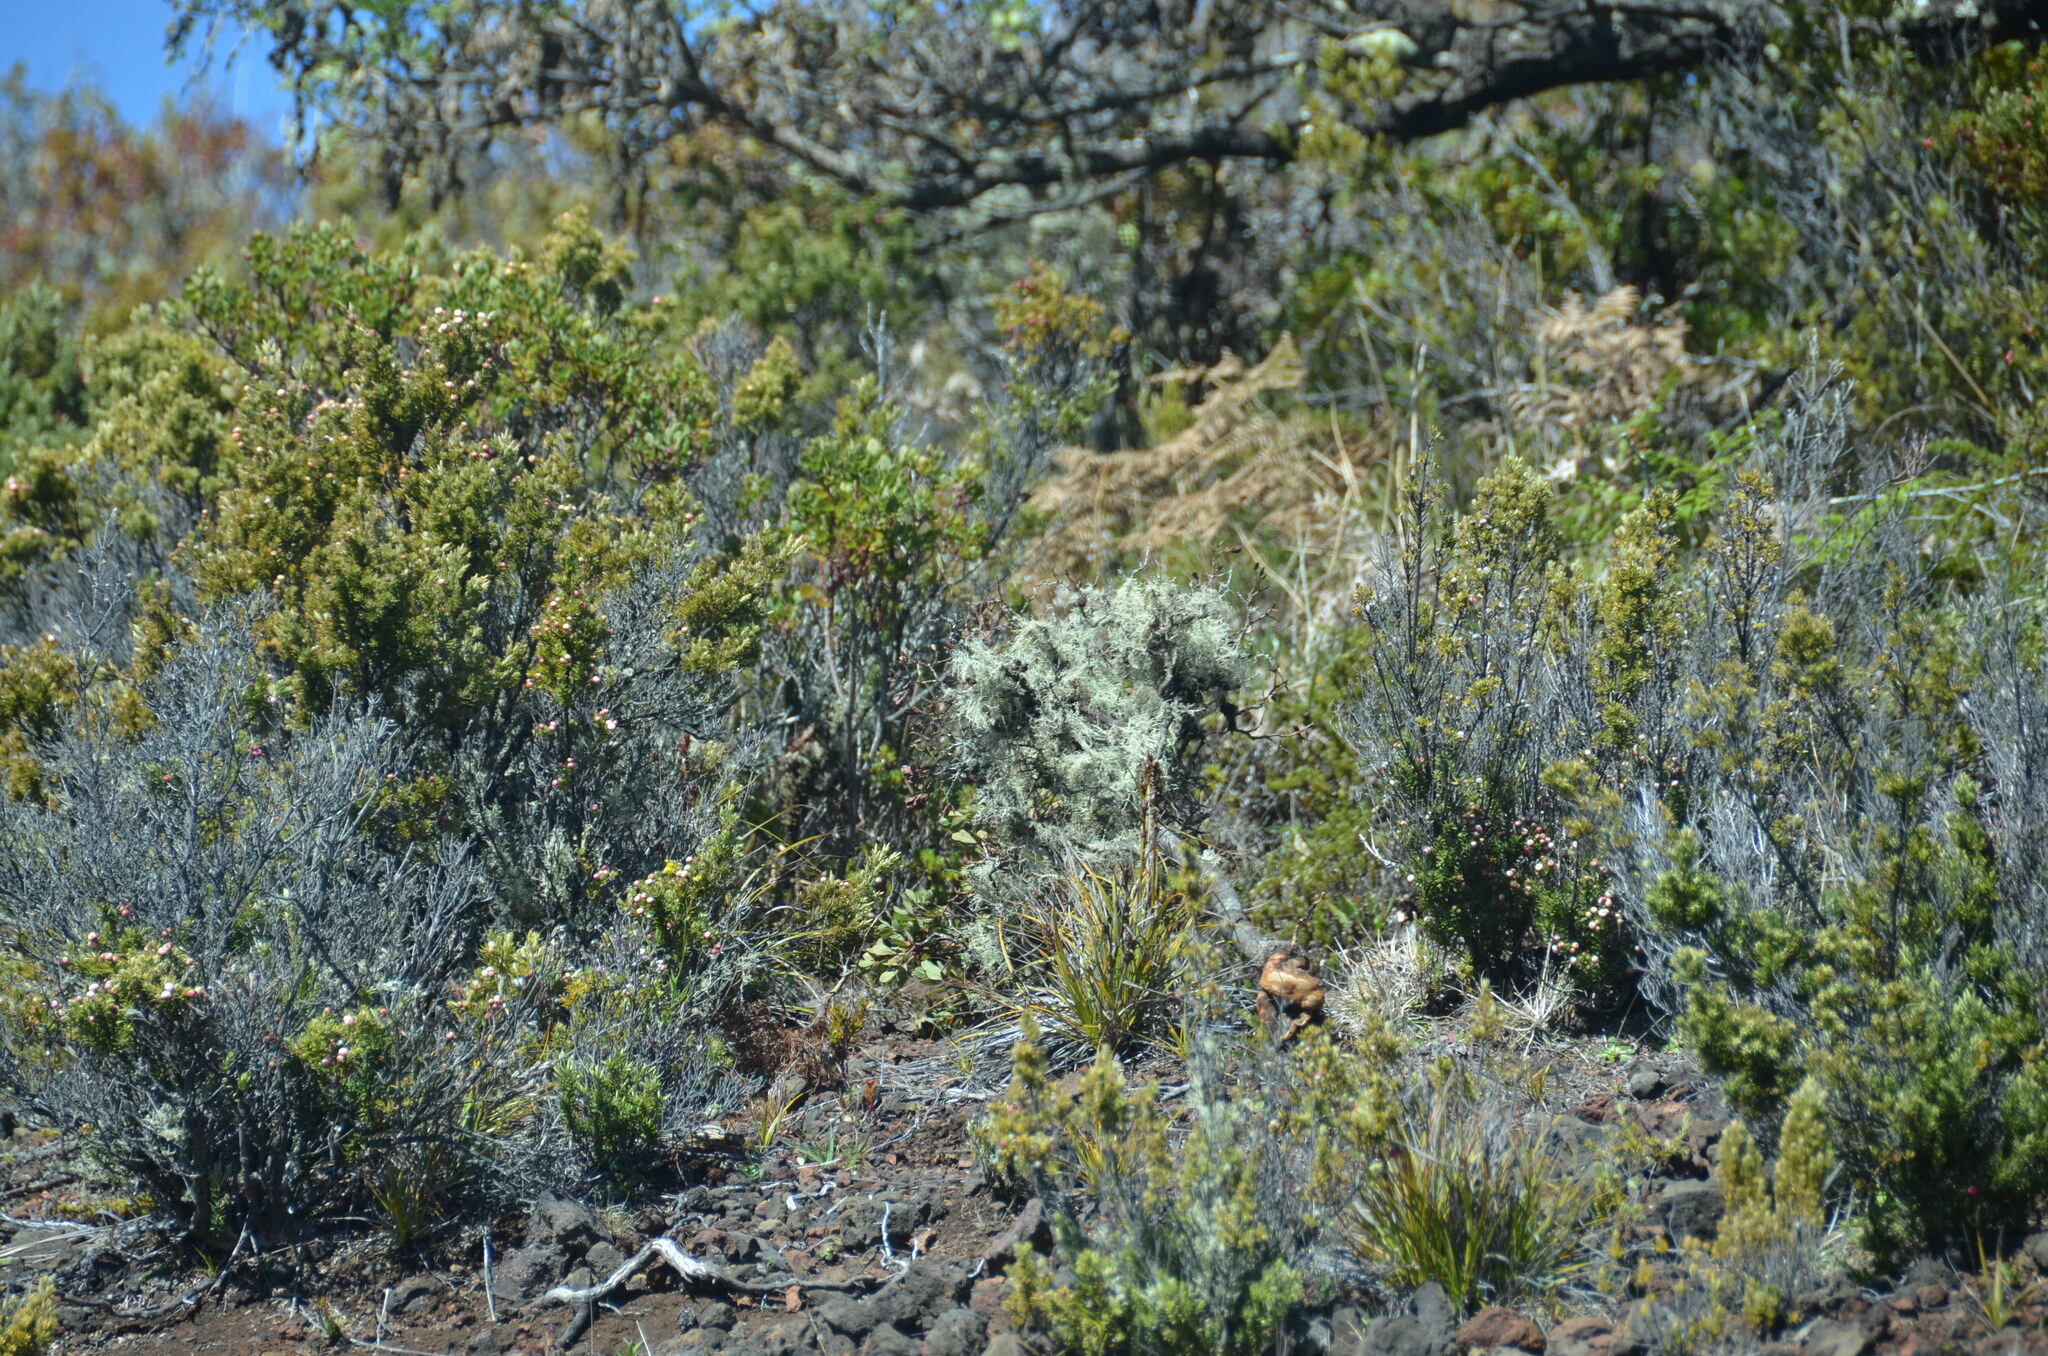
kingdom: Plantae
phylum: Tracheophyta
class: Magnoliopsida
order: Ericales
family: Ericaceae
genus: Leptecophylla
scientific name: Leptecophylla tameiameiae
